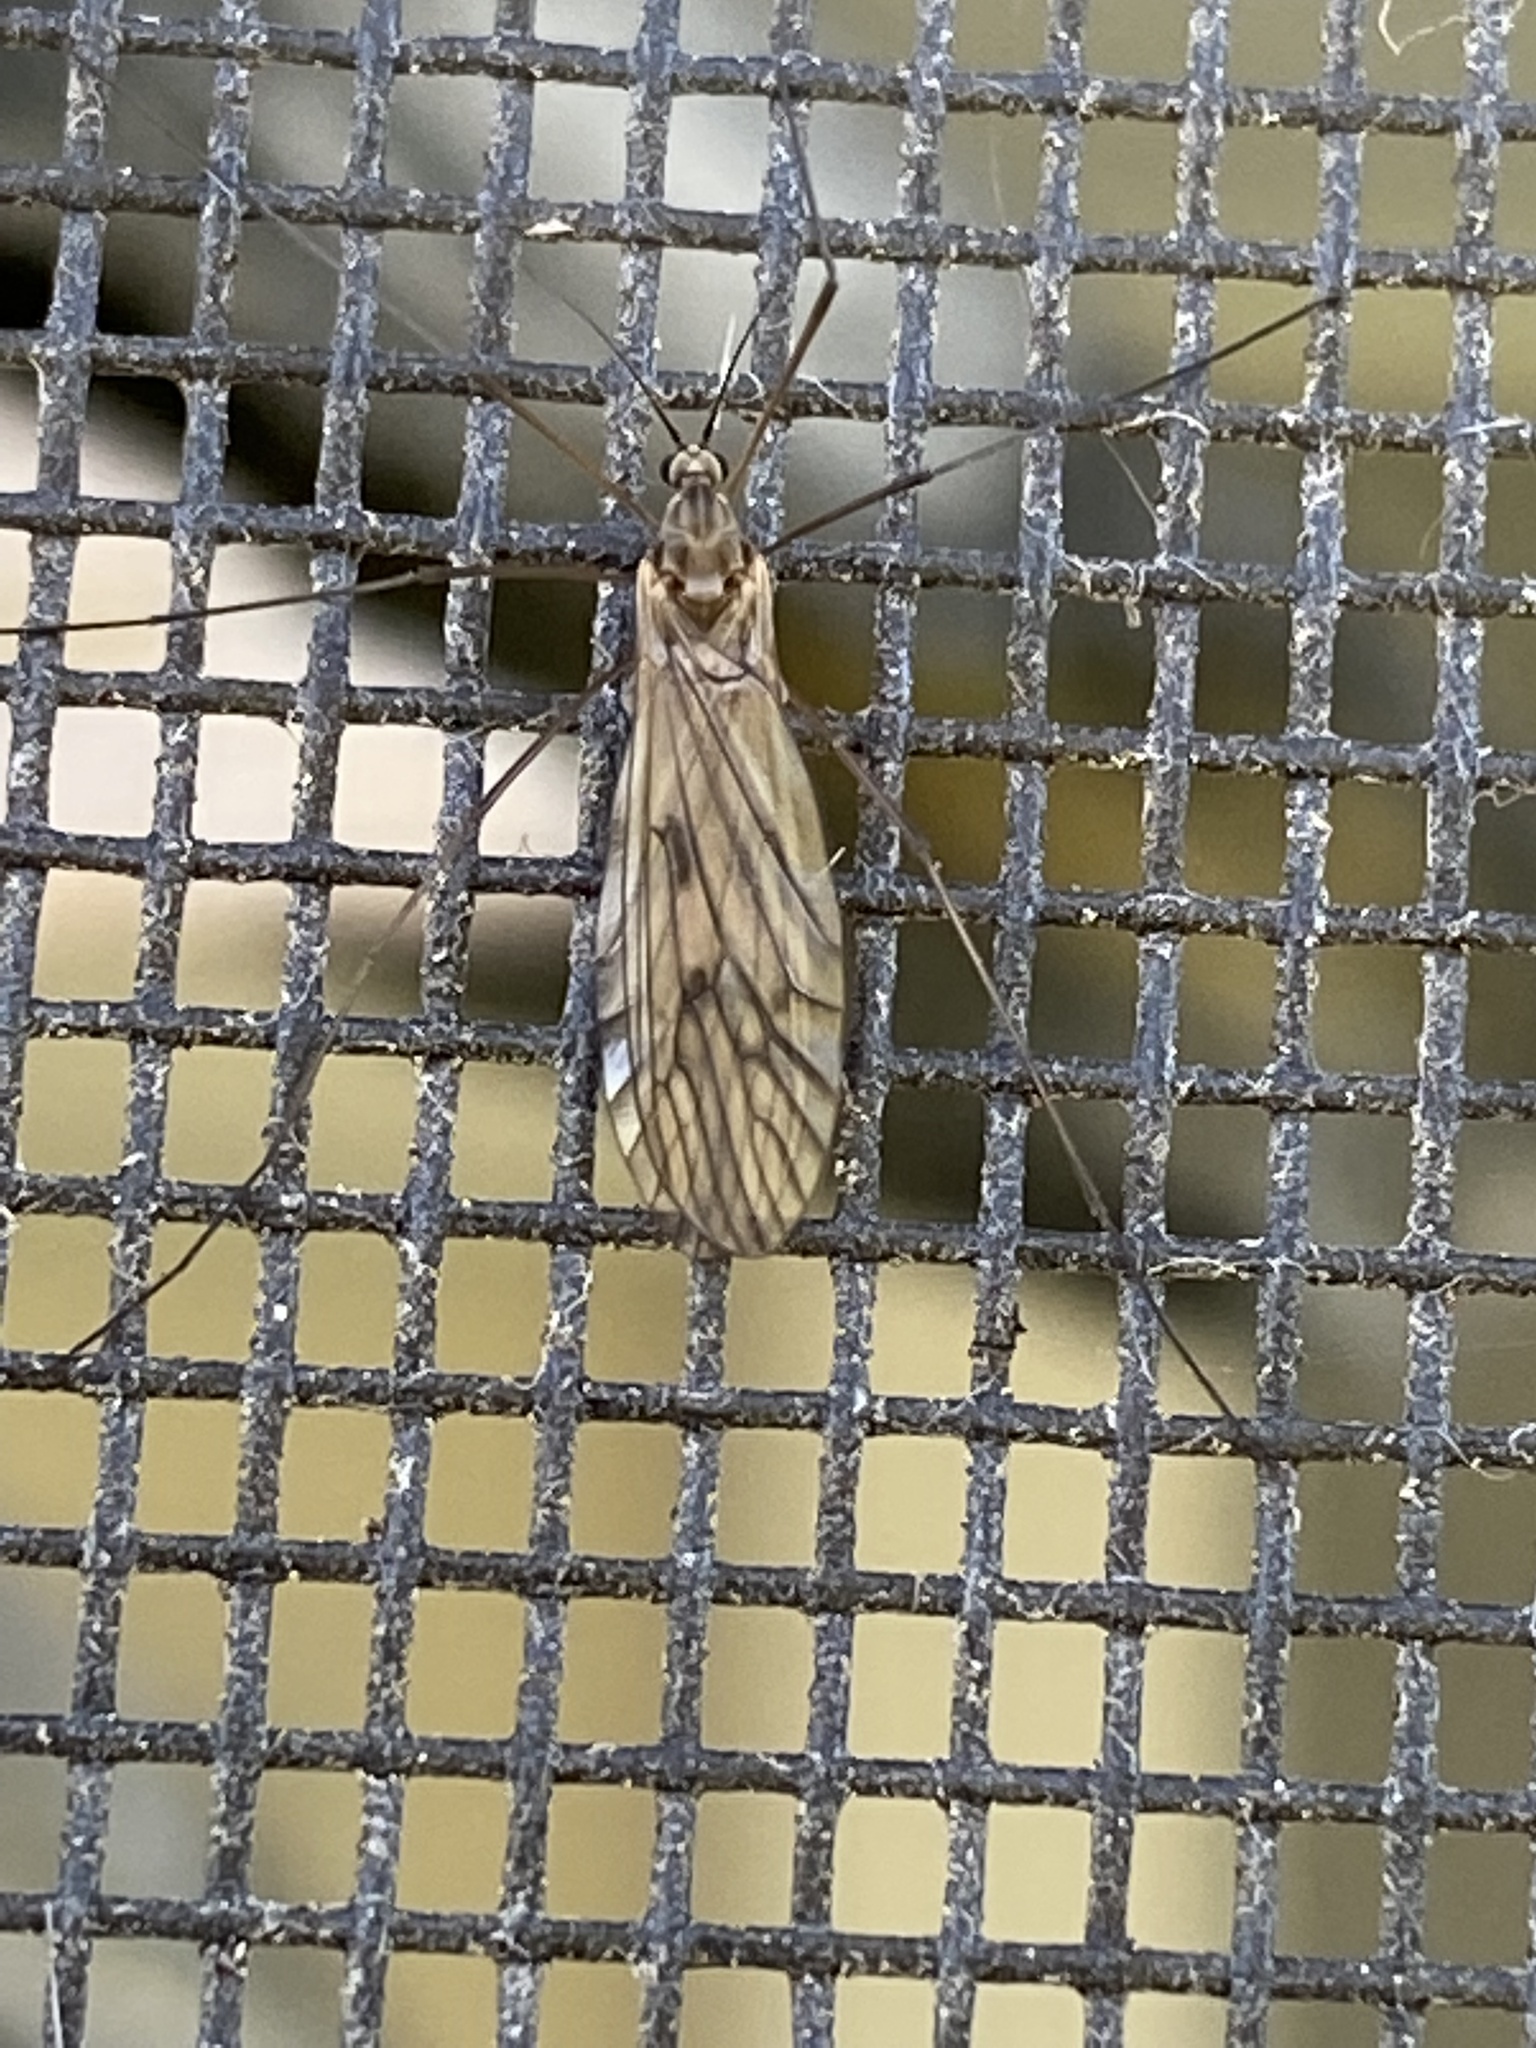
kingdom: Animalia
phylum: Arthropoda
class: Insecta
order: Diptera
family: Trichoceridae
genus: Trichocera
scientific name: Trichocera bimacula
